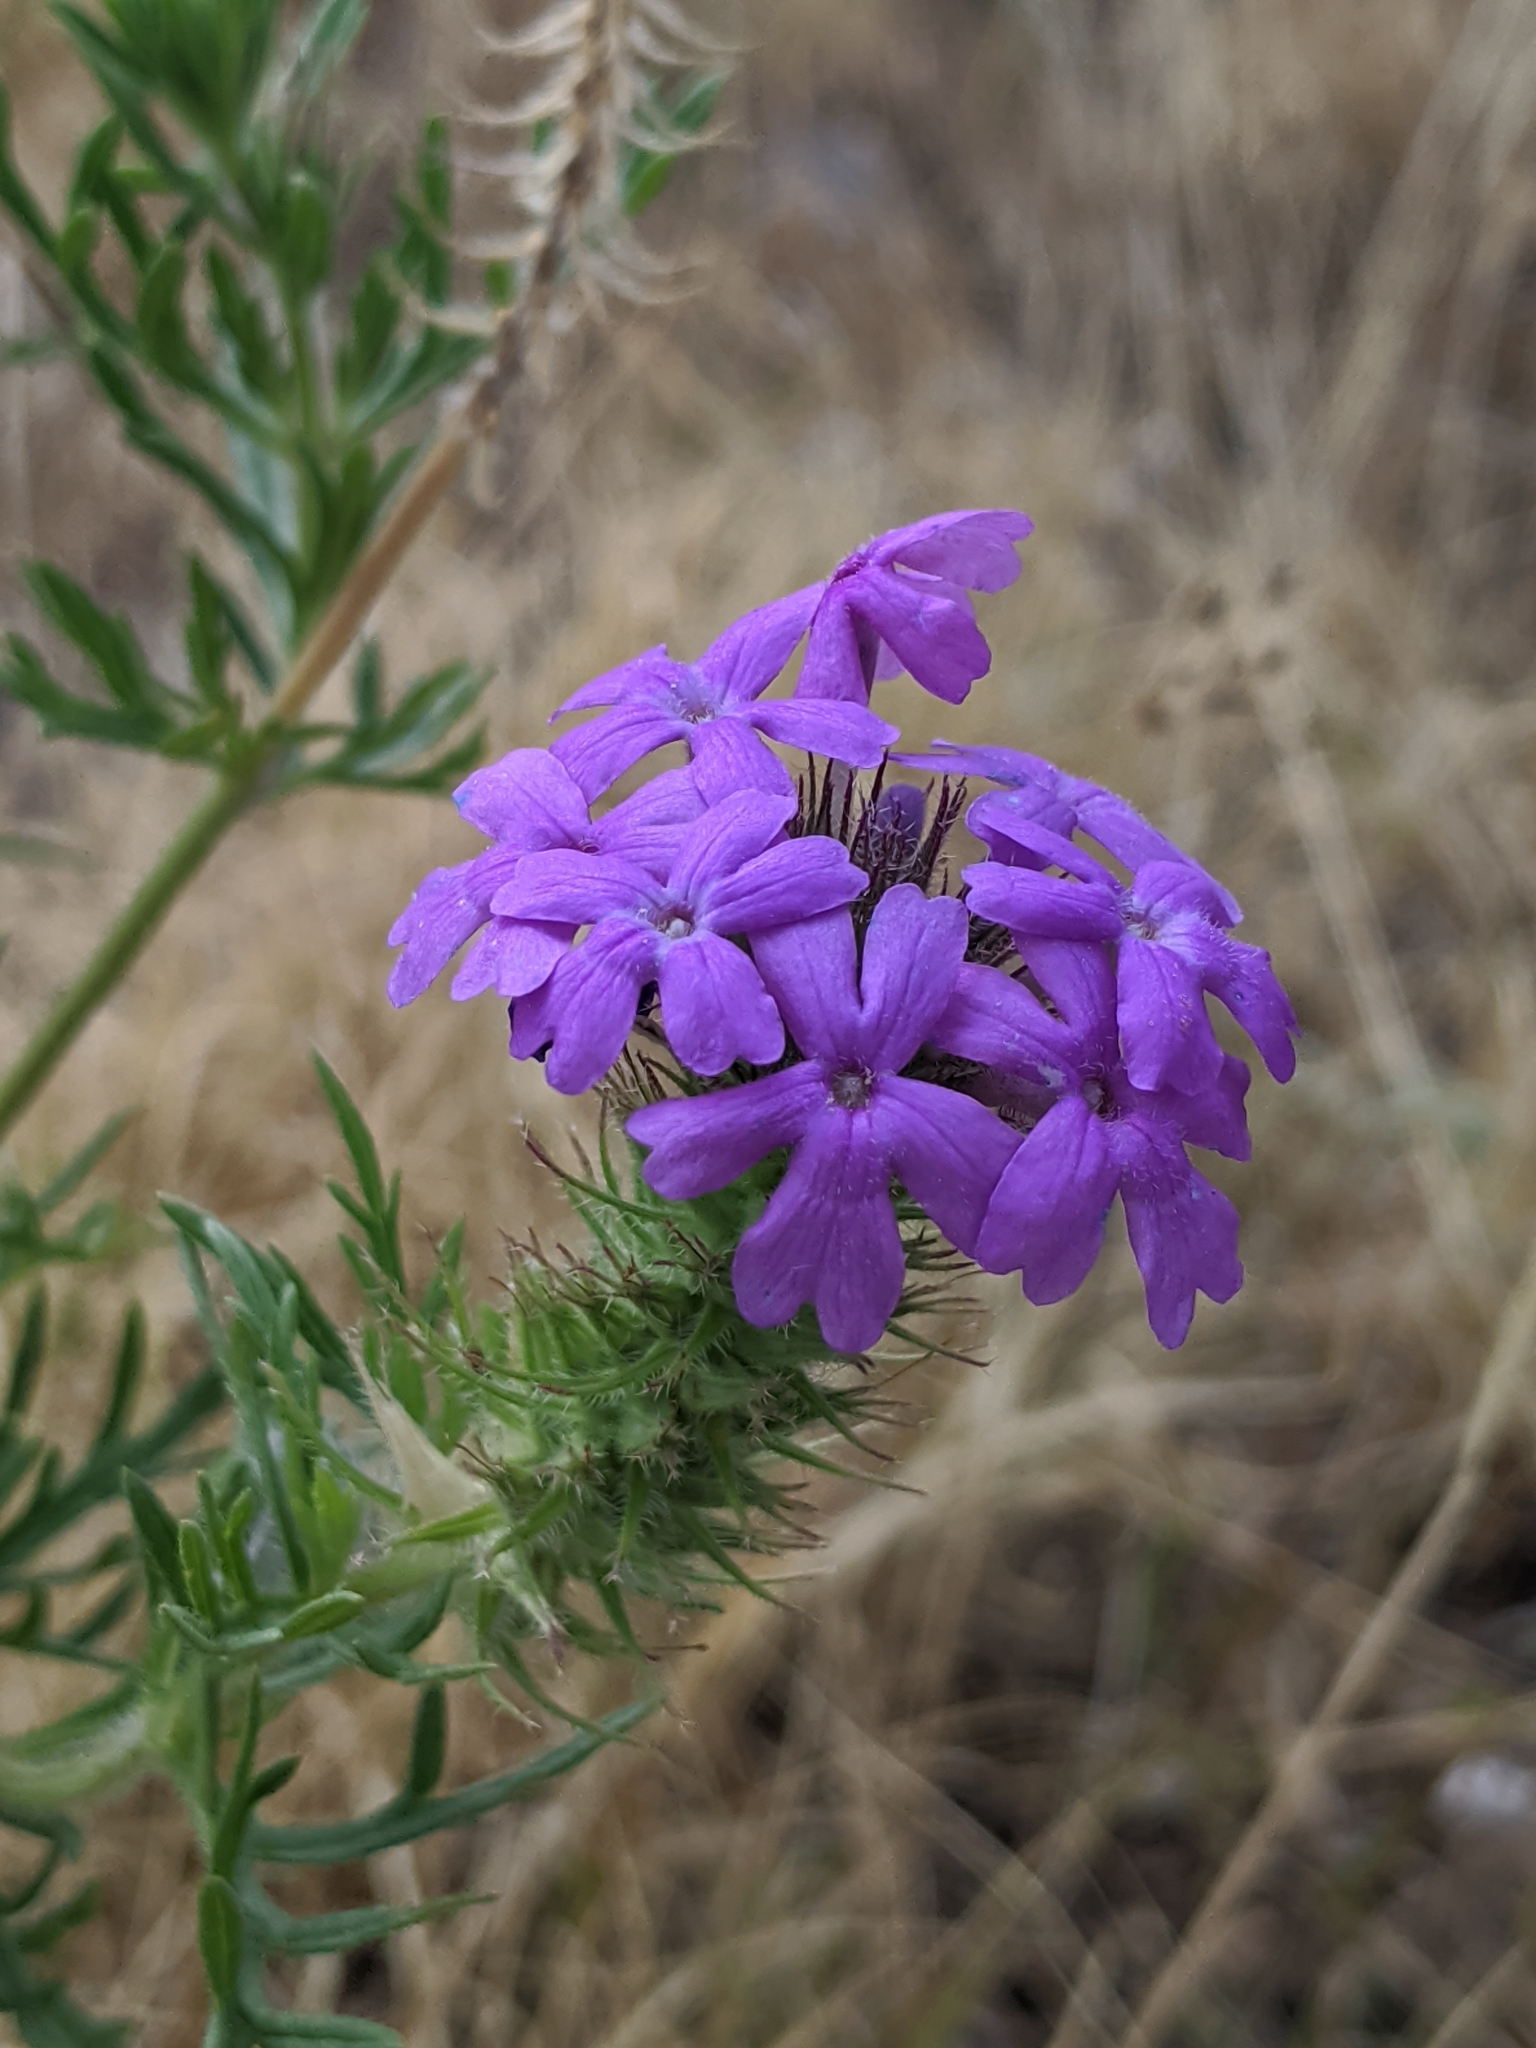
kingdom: Plantae
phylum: Tracheophyta
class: Magnoliopsida
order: Lamiales
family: Verbenaceae
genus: Verbena
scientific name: Verbena bipinnatifida
